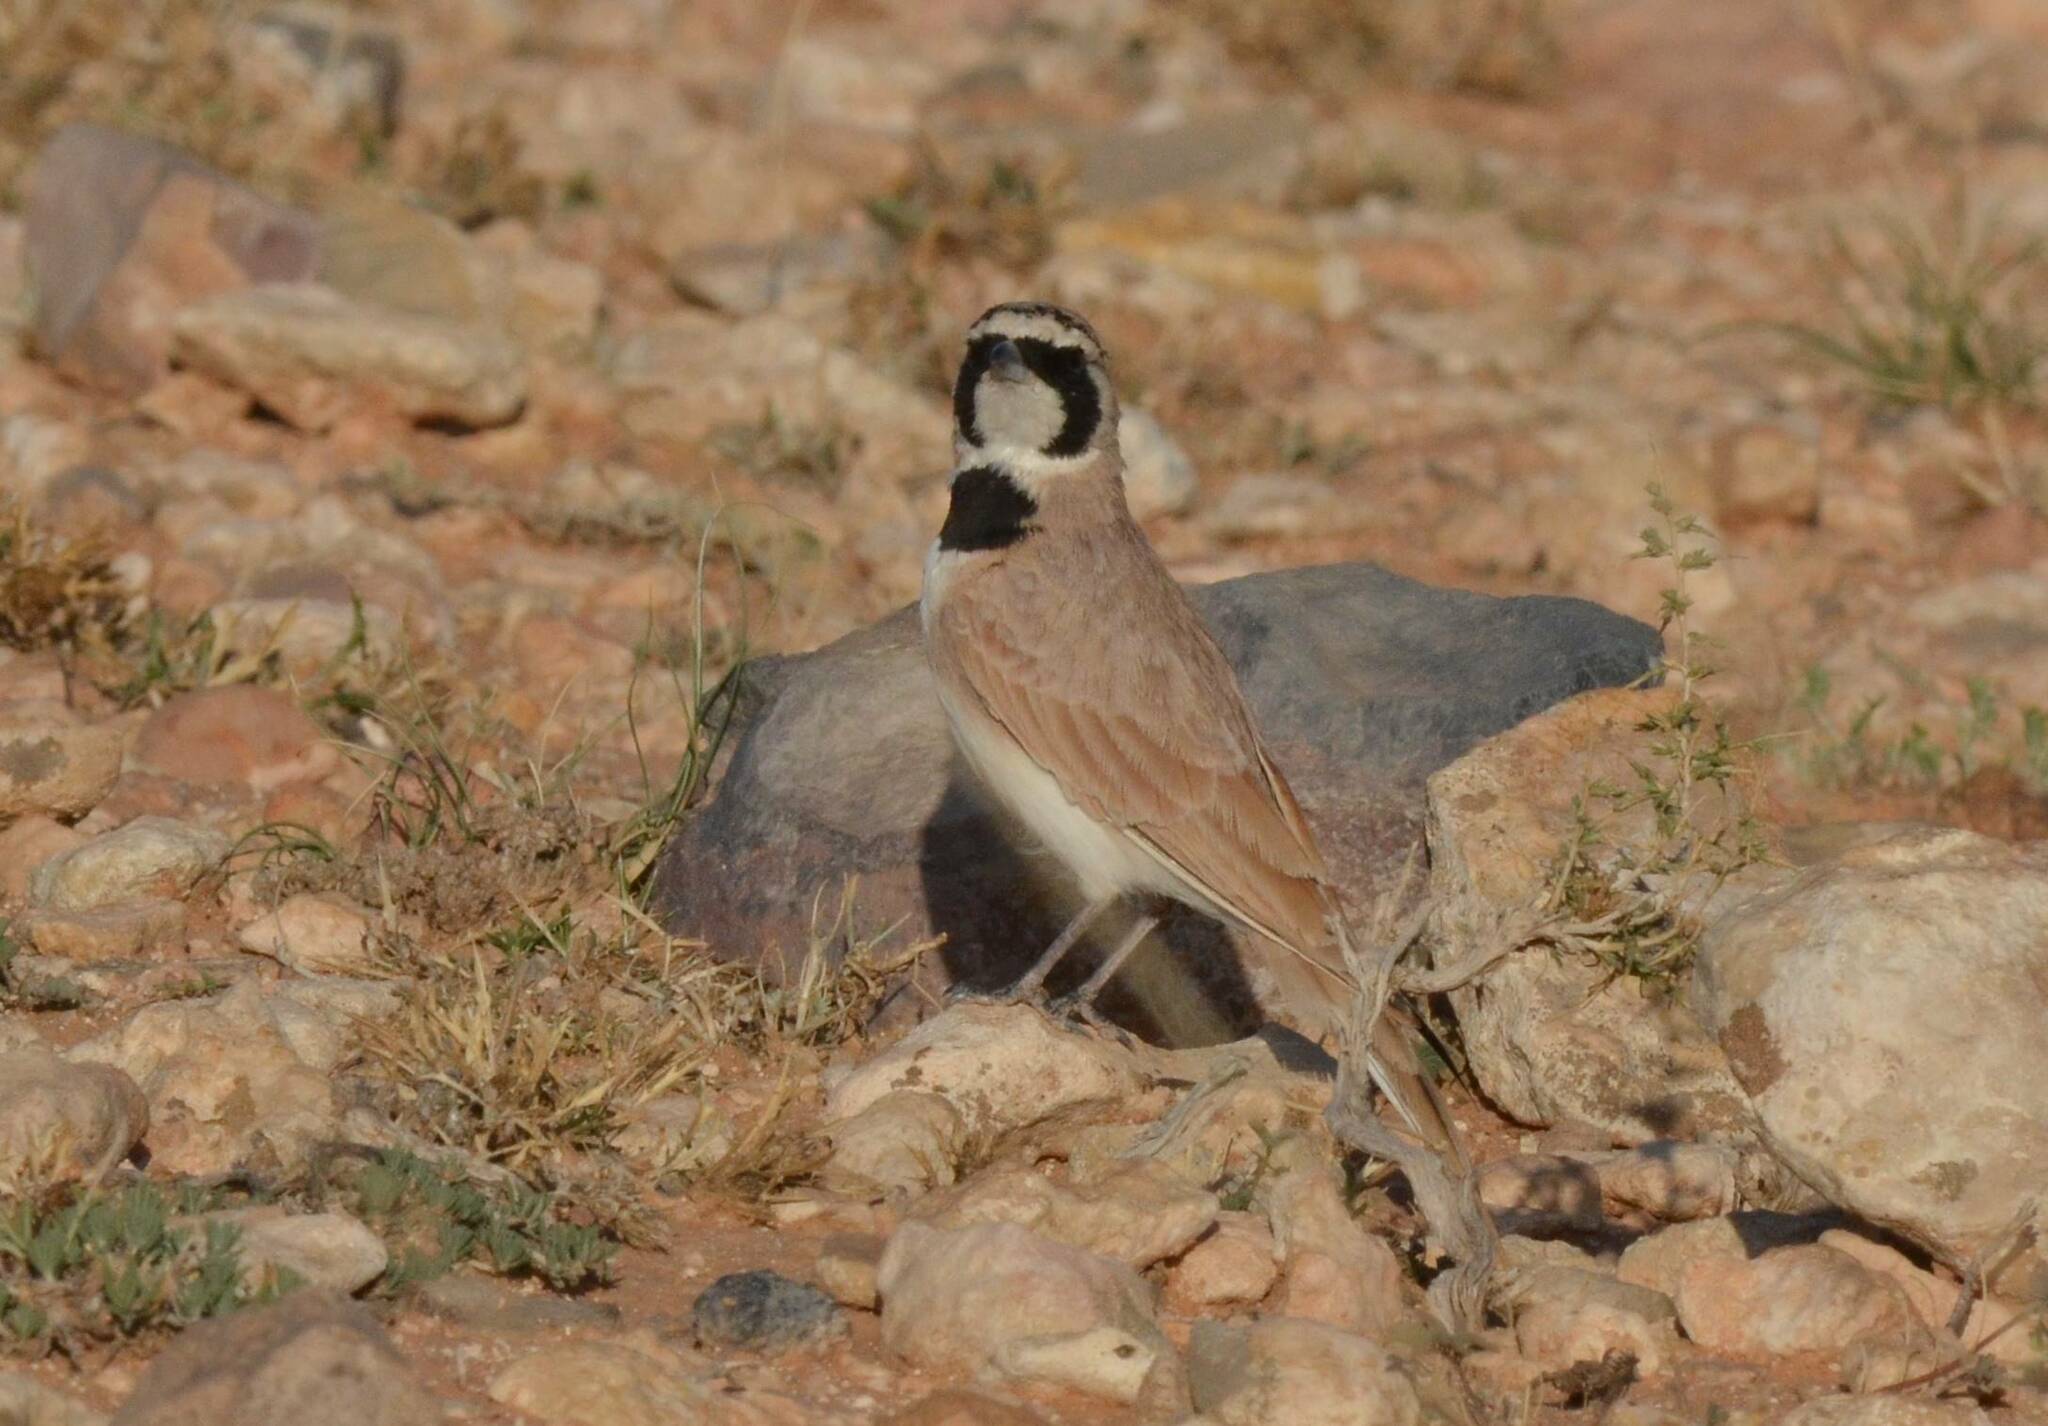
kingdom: Animalia
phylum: Chordata
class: Aves
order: Passeriformes
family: Alaudidae
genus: Eremophila
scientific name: Eremophila bilopha
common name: Temminck's lark
